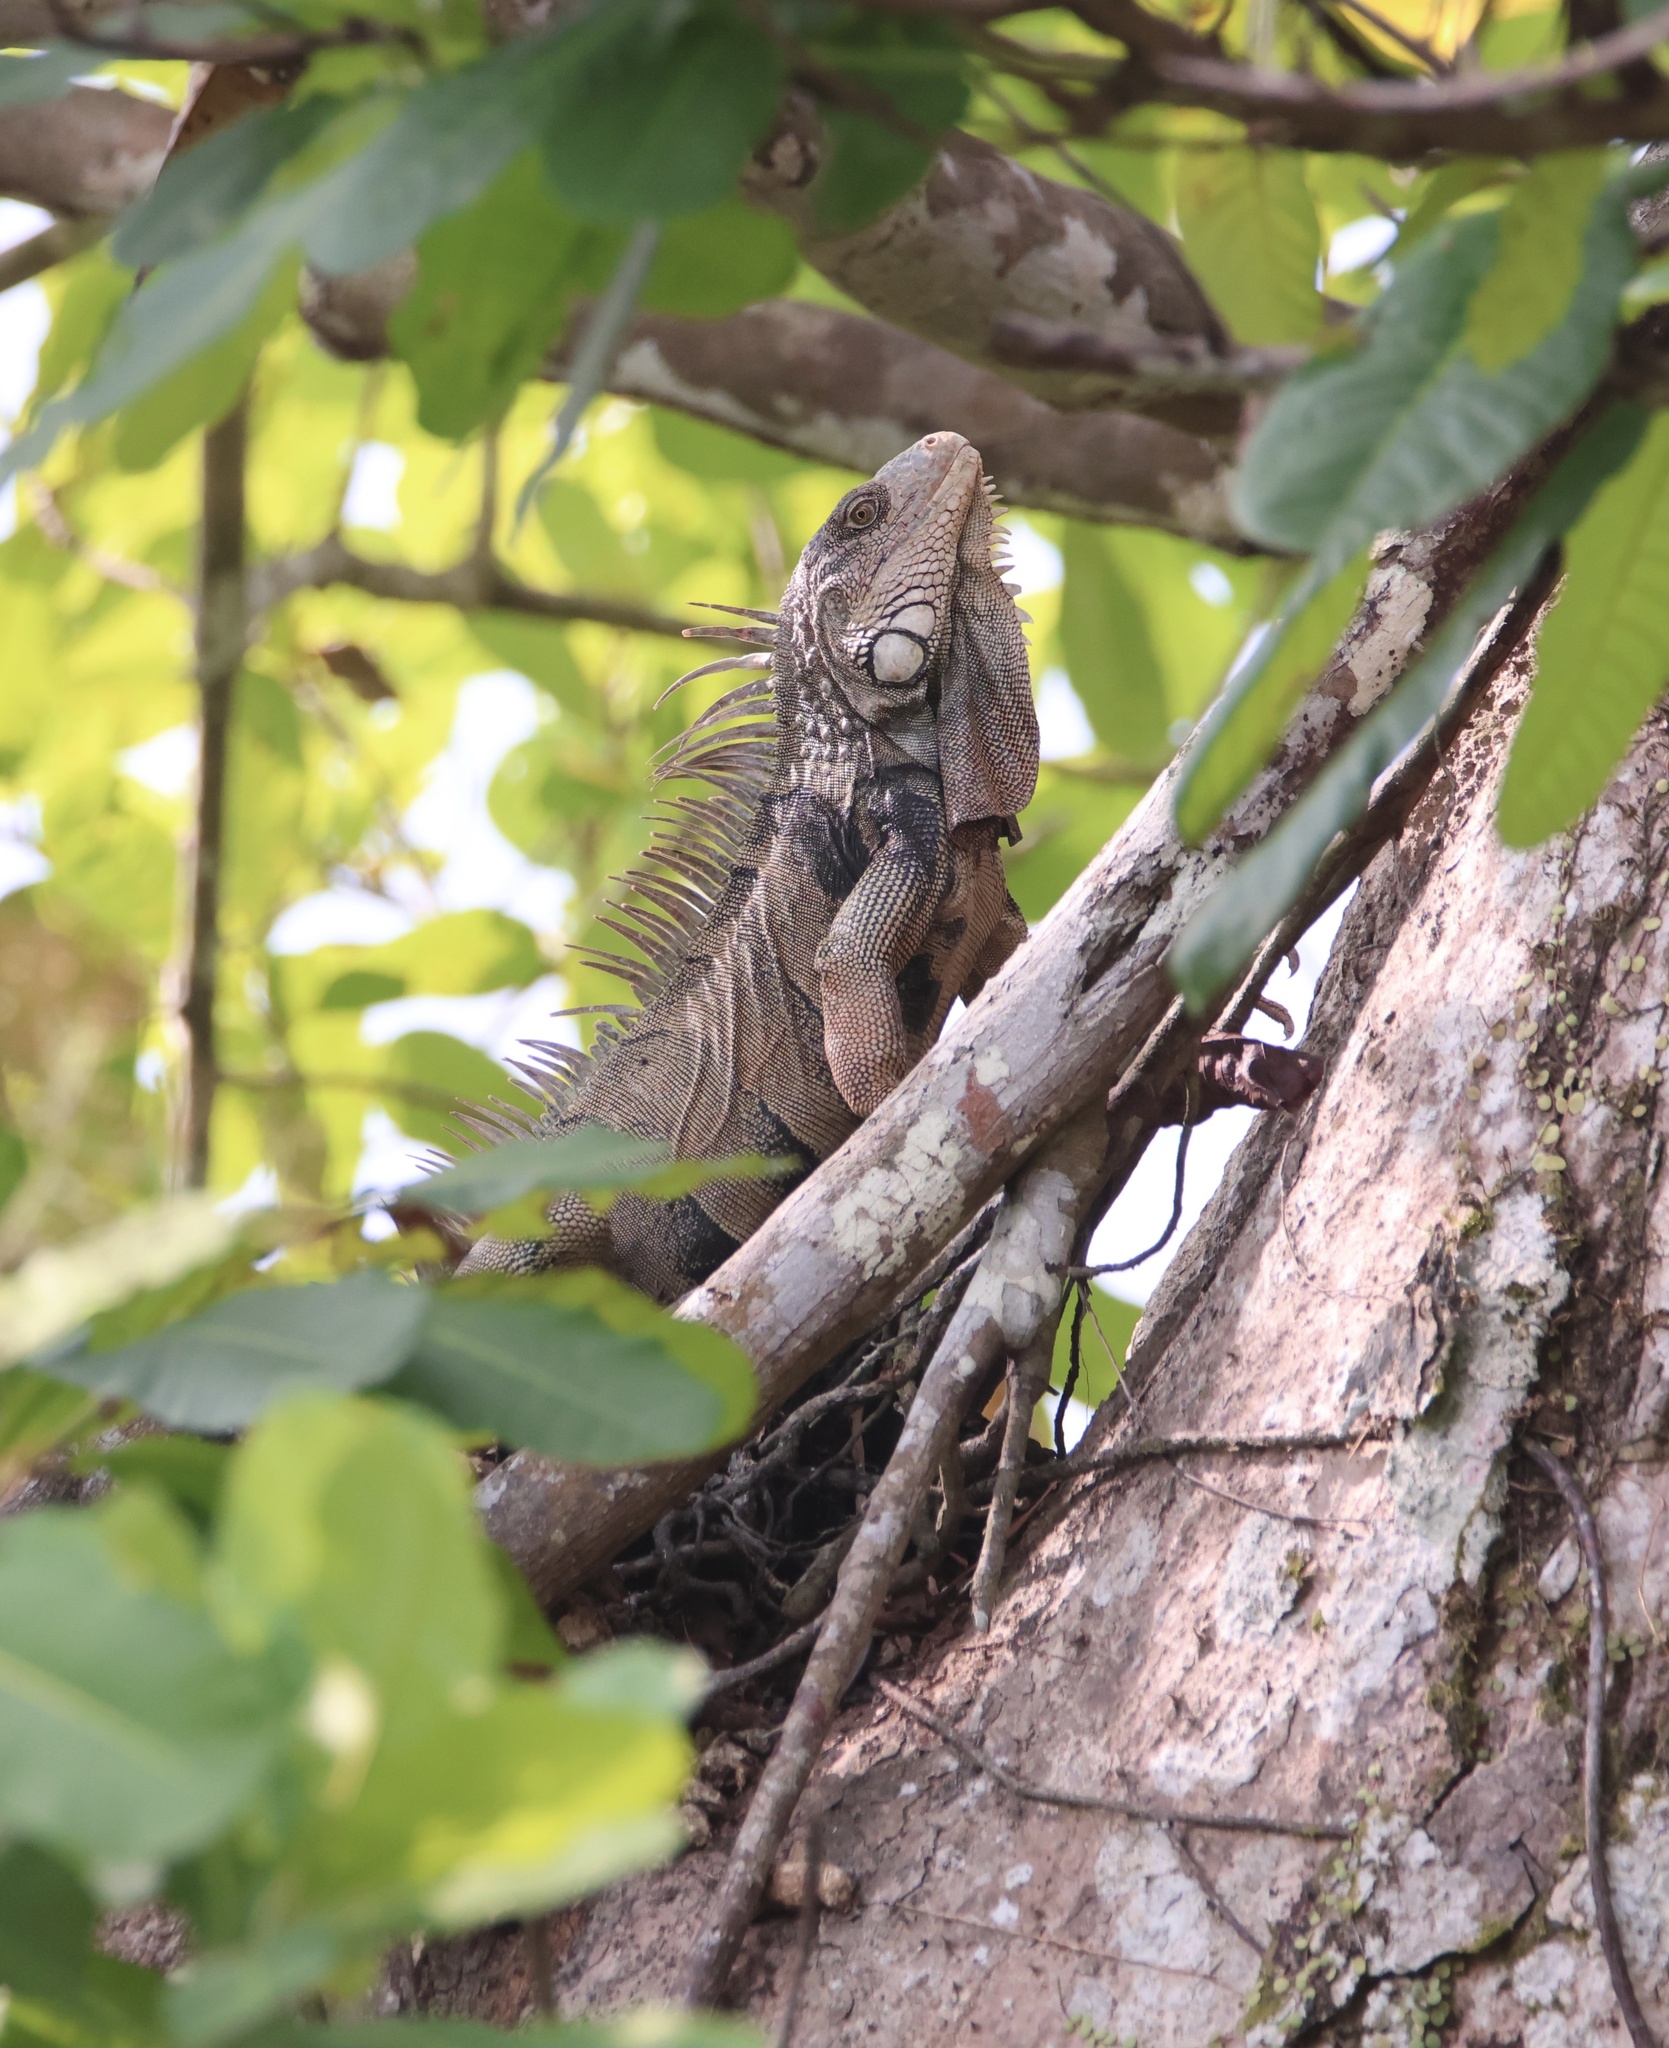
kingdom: Animalia
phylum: Chordata
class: Squamata
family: Iguanidae
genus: Iguana
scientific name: Iguana iguana
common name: Green iguana
